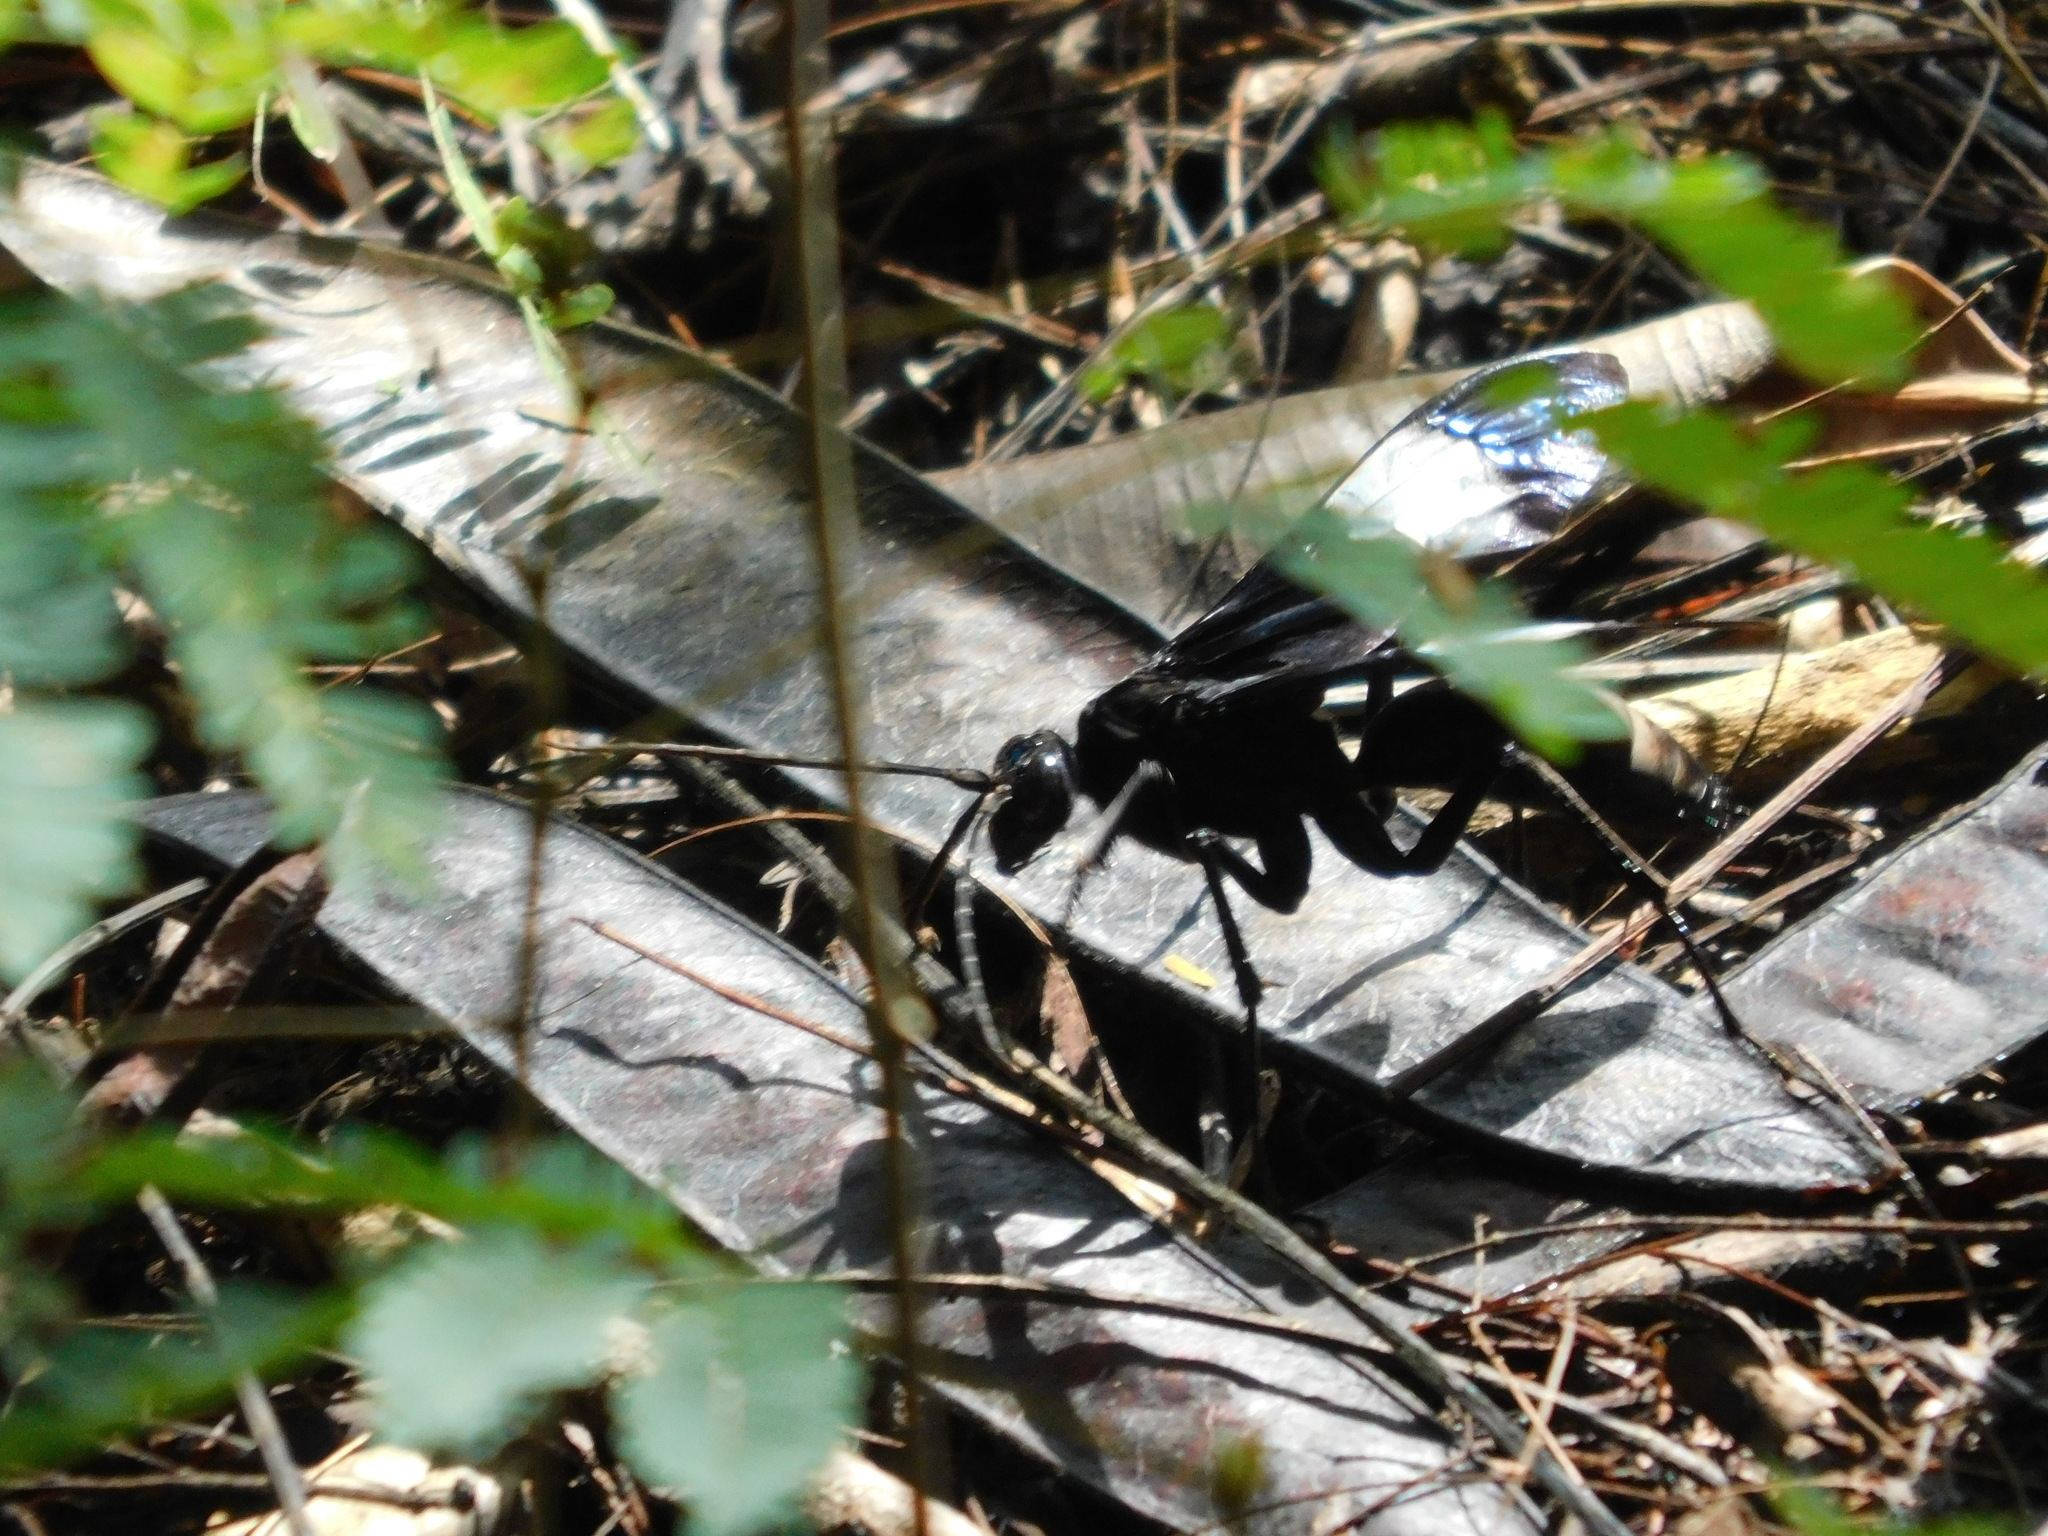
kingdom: Animalia
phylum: Arthropoda
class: Insecta
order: Hymenoptera
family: Pompilidae
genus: Hemipepsis
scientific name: Hemipepsis speculifer
